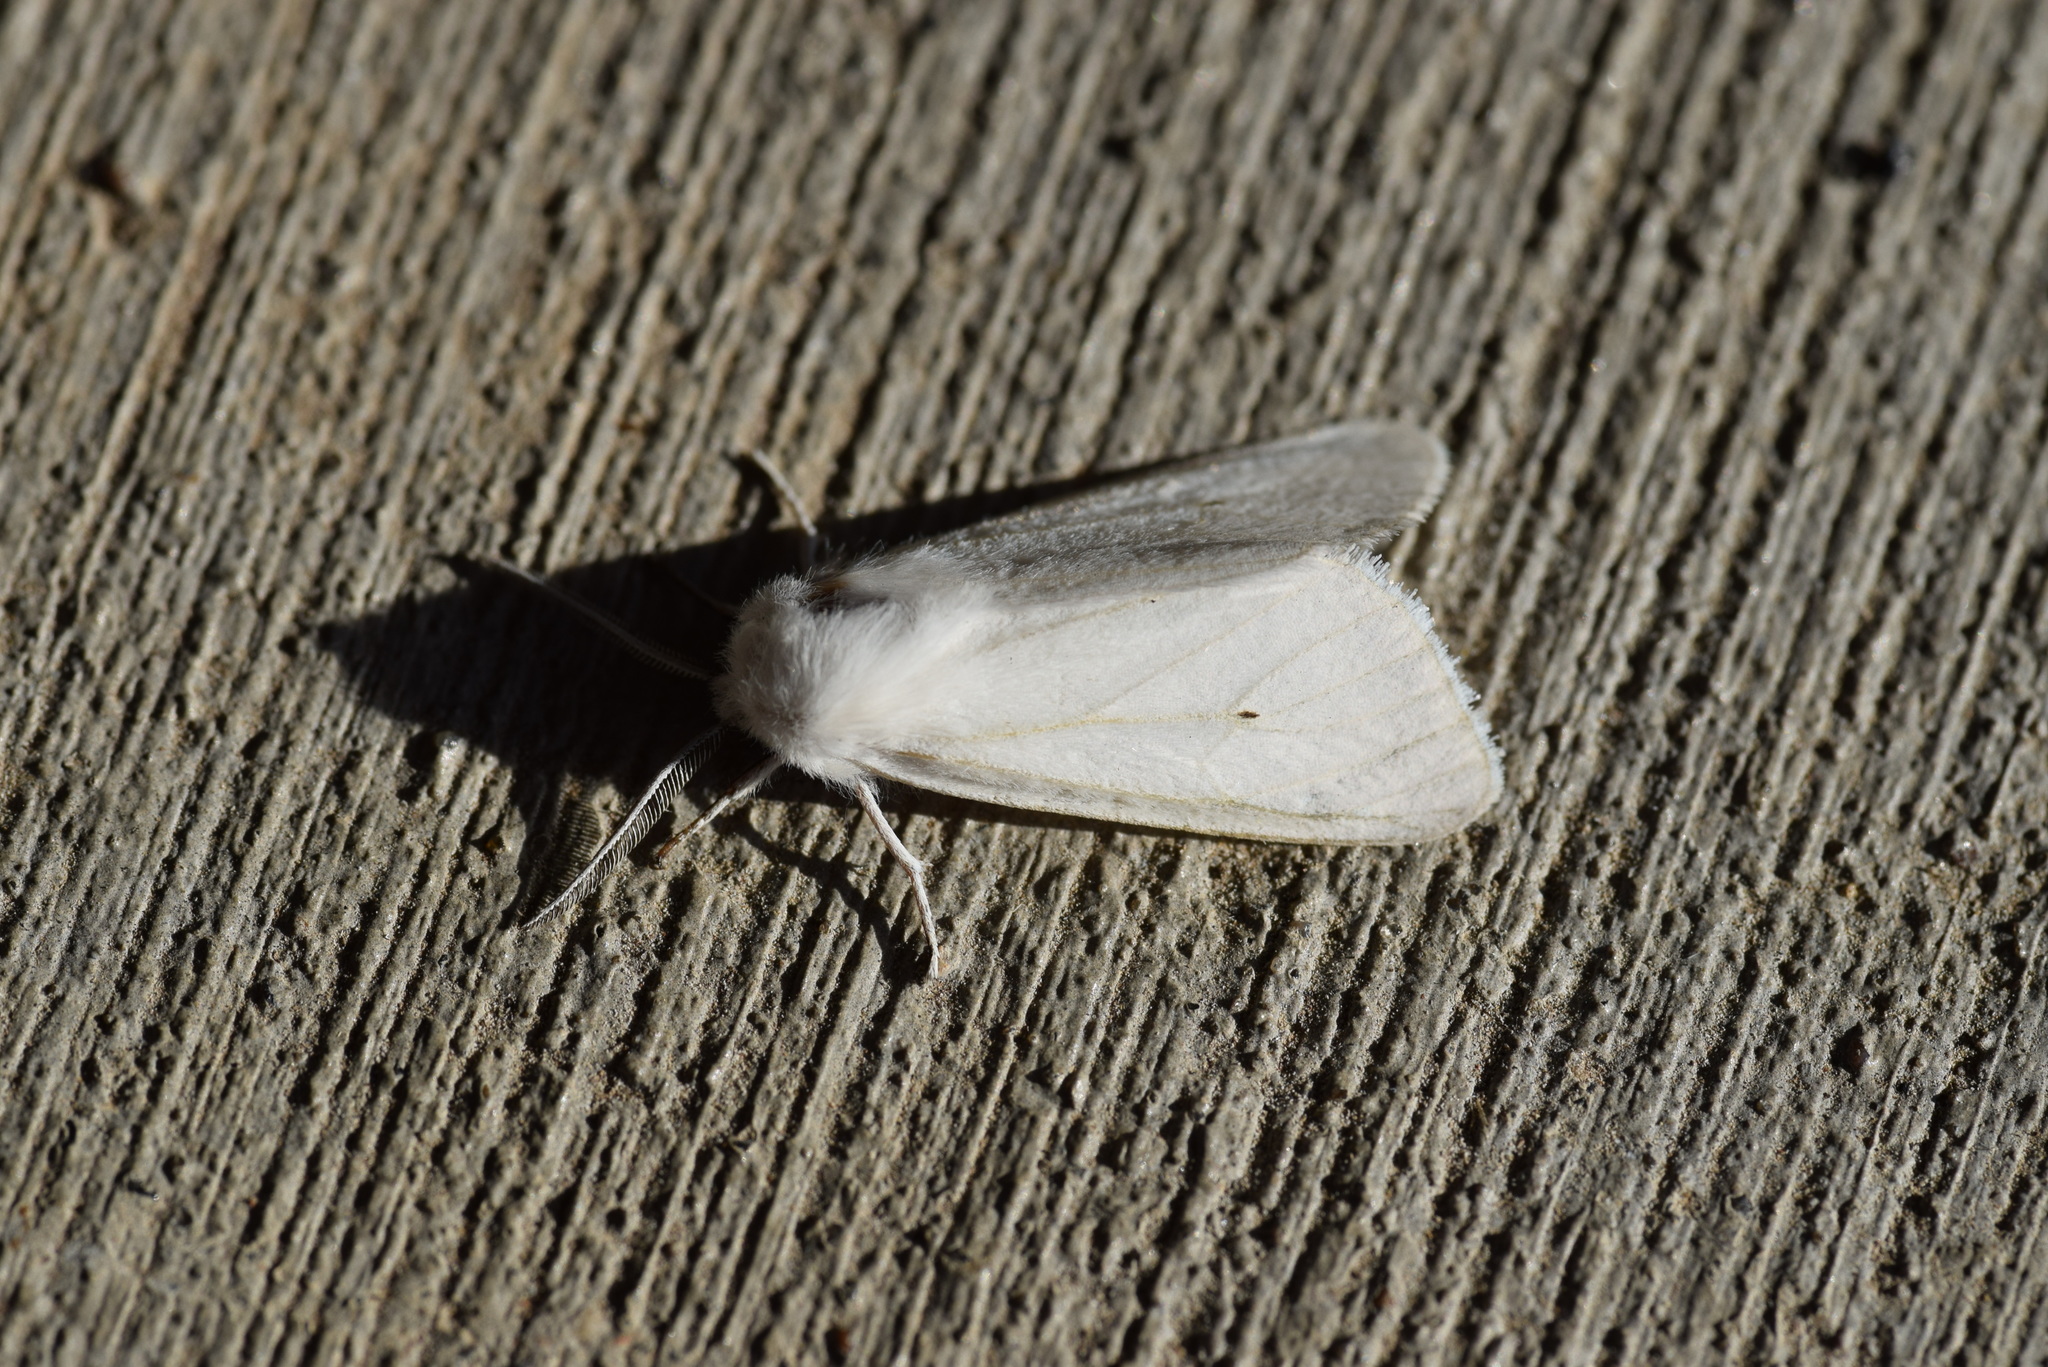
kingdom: Animalia
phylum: Arthropoda
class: Insecta
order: Lepidoptera
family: Erebidae
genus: Spilosoma
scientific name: Spilosoma virginica
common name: Virginia tiger moth
